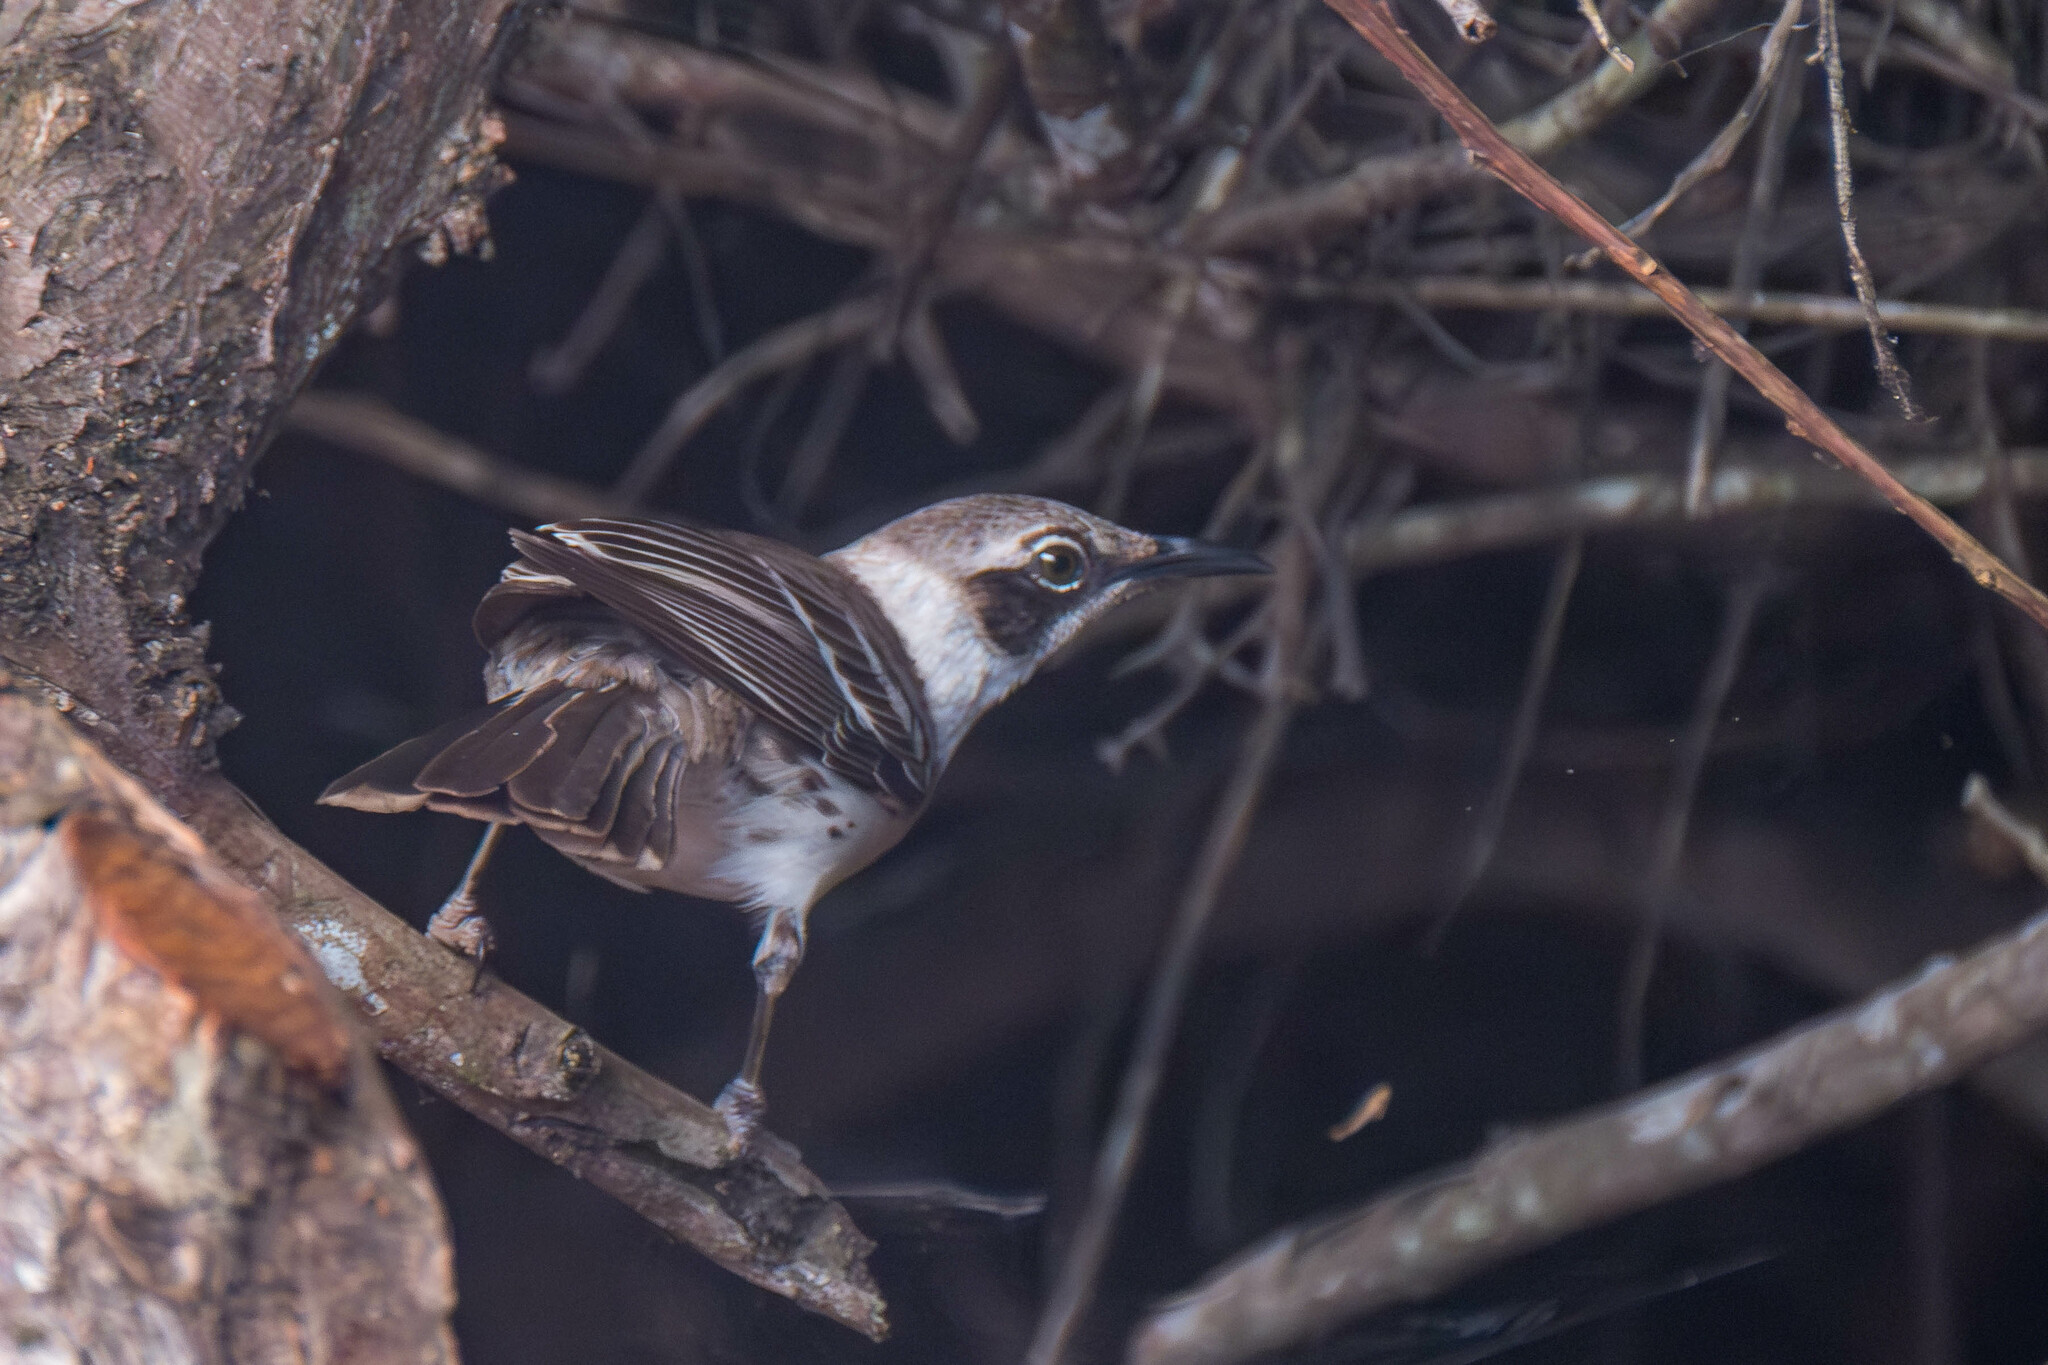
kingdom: Animalia
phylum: Chordata
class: Aves
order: Passeriformes
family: Mimidae
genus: Mimus
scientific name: Mimus parvulus
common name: Galapagos mockingbird
